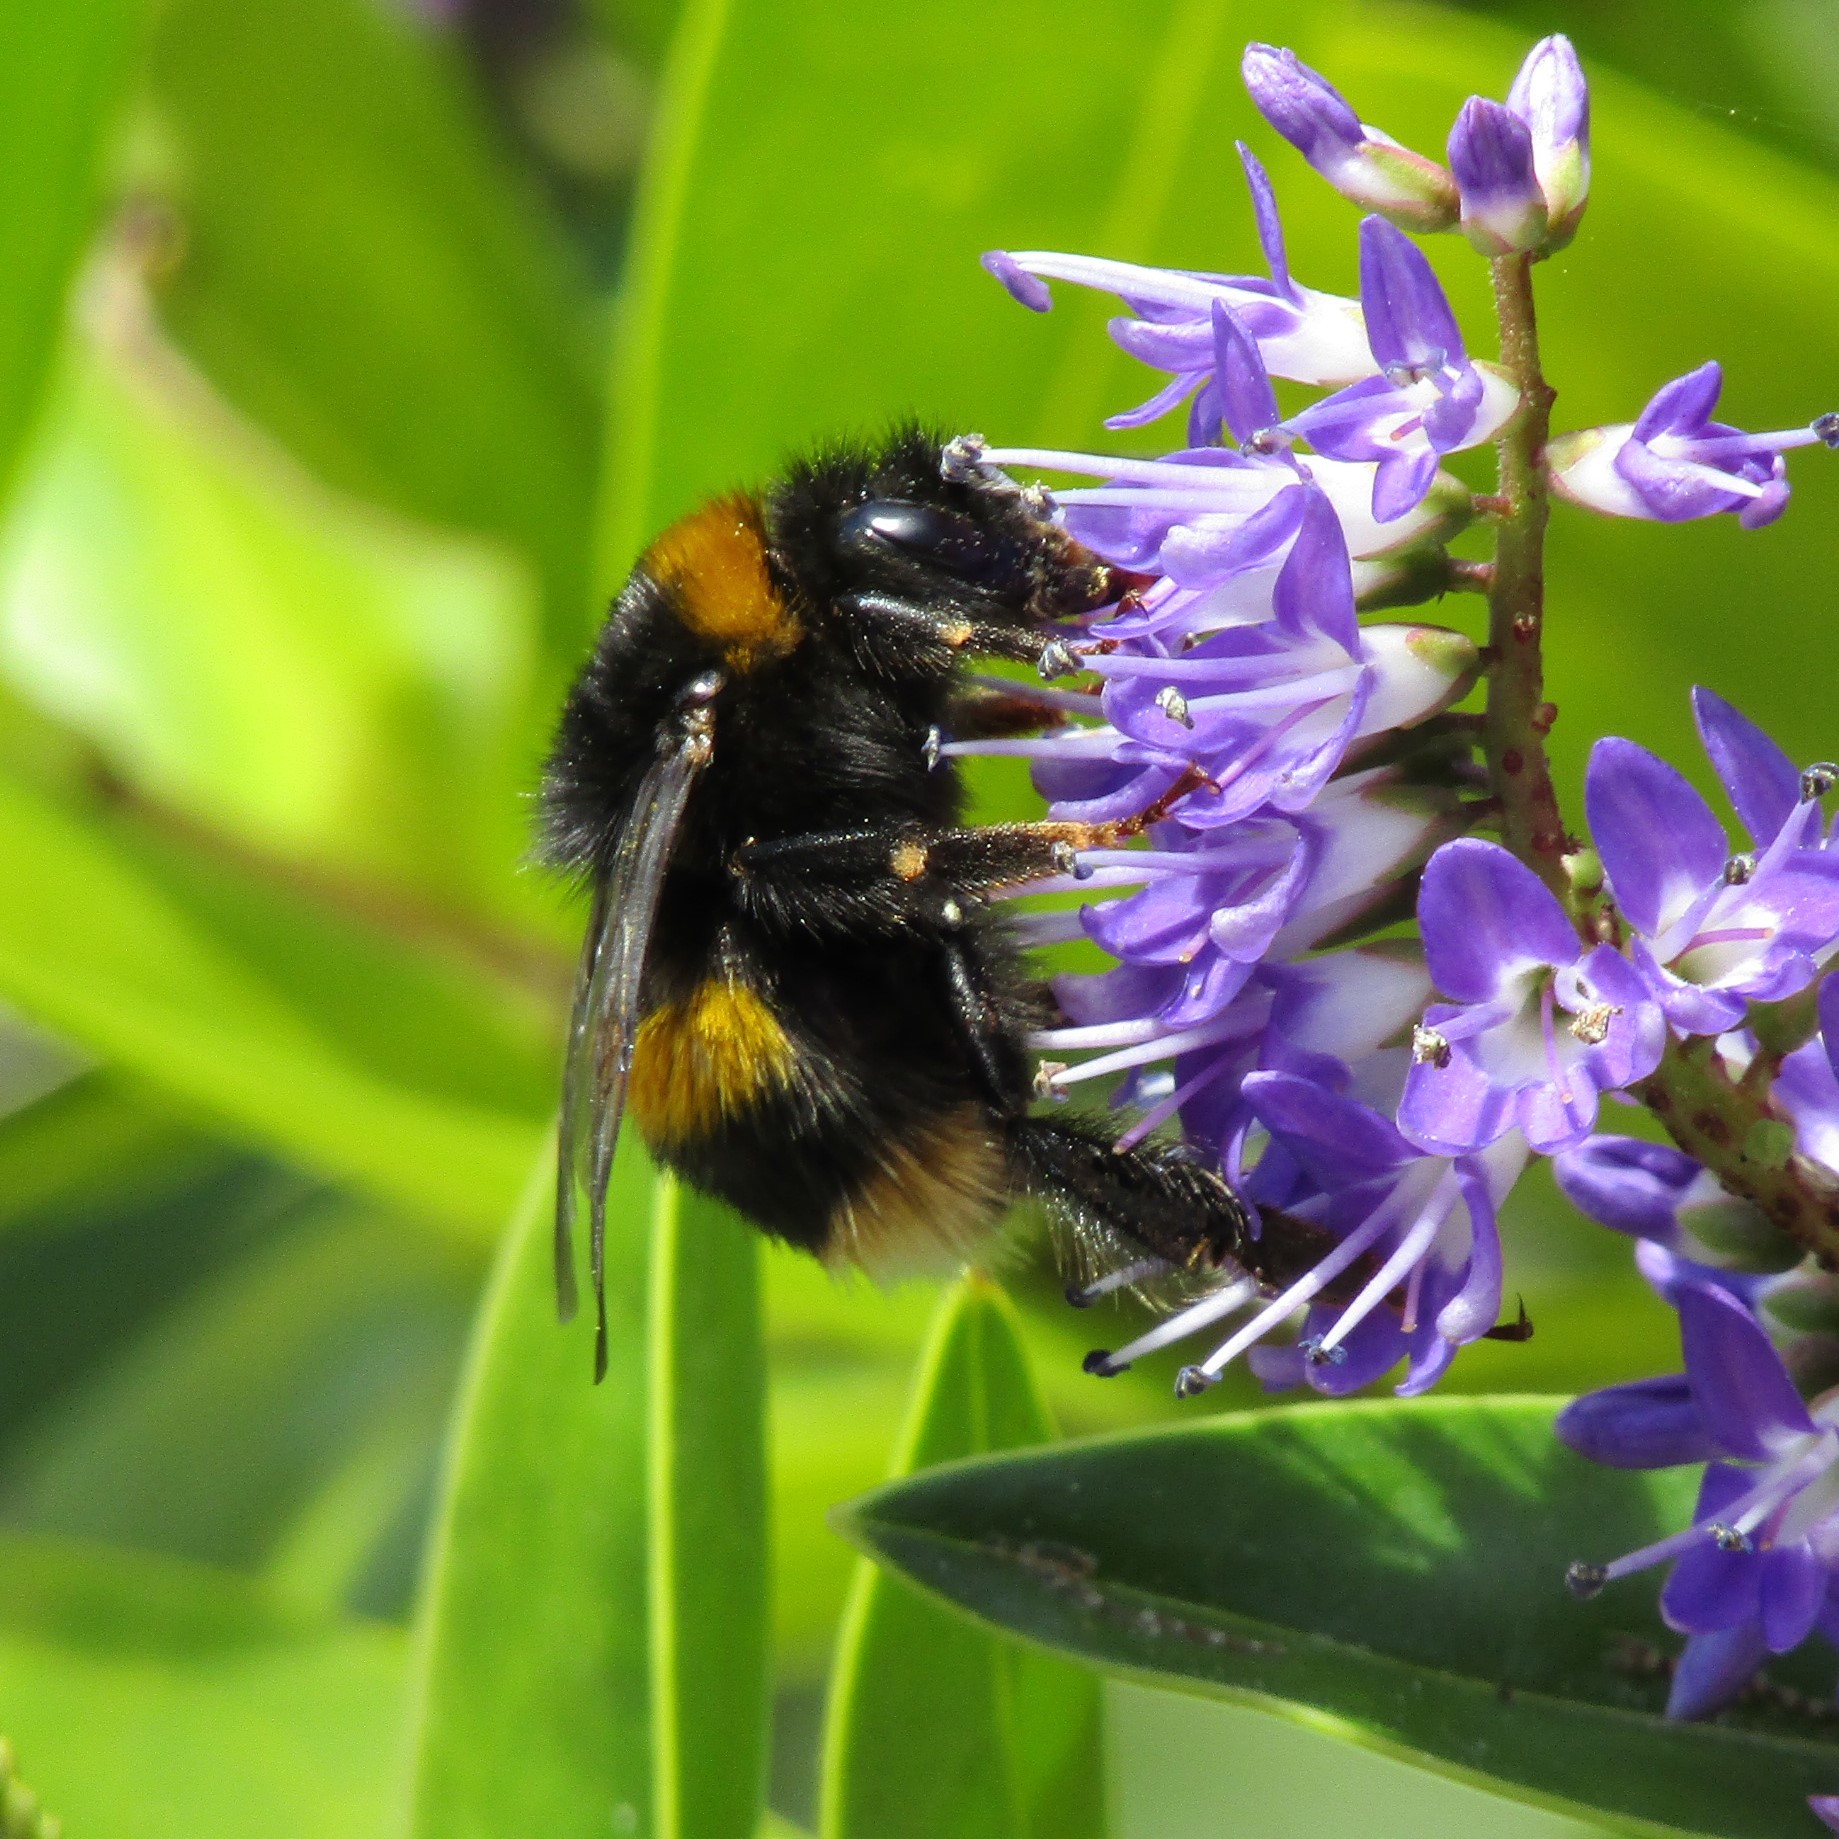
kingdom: Animalia
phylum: Arthropoda
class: Insecta
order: Hymenoptera
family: Apidae
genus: Bombus
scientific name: Bombus terrestris
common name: Buff-tailed bumblebee
